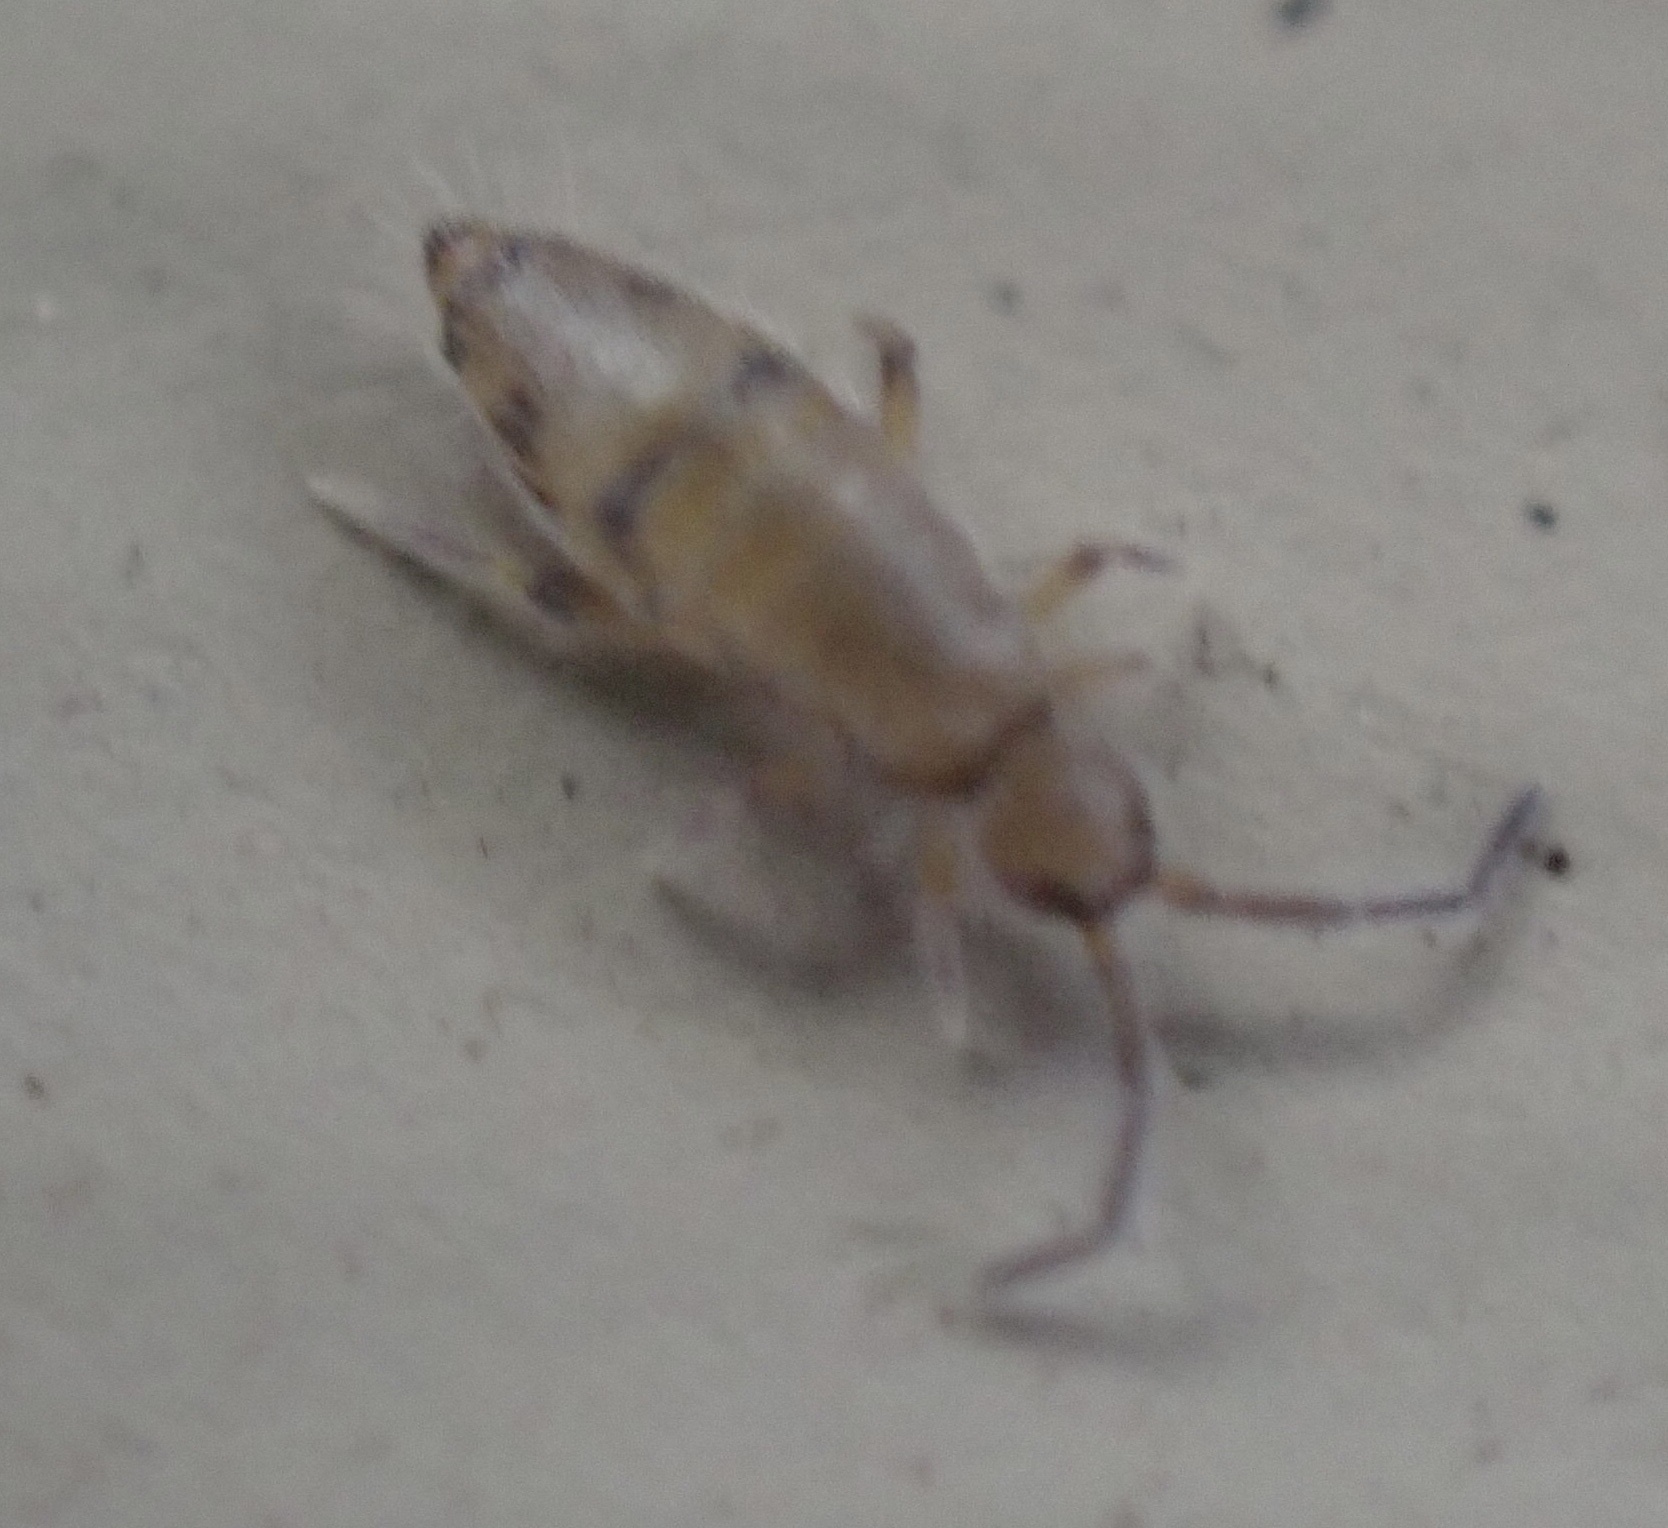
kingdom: Animalia
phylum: Arthropoda
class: Collembola
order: Entomobryomorpha
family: Entomobryidae
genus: Willowsia
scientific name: Willowsia nigromaculata
